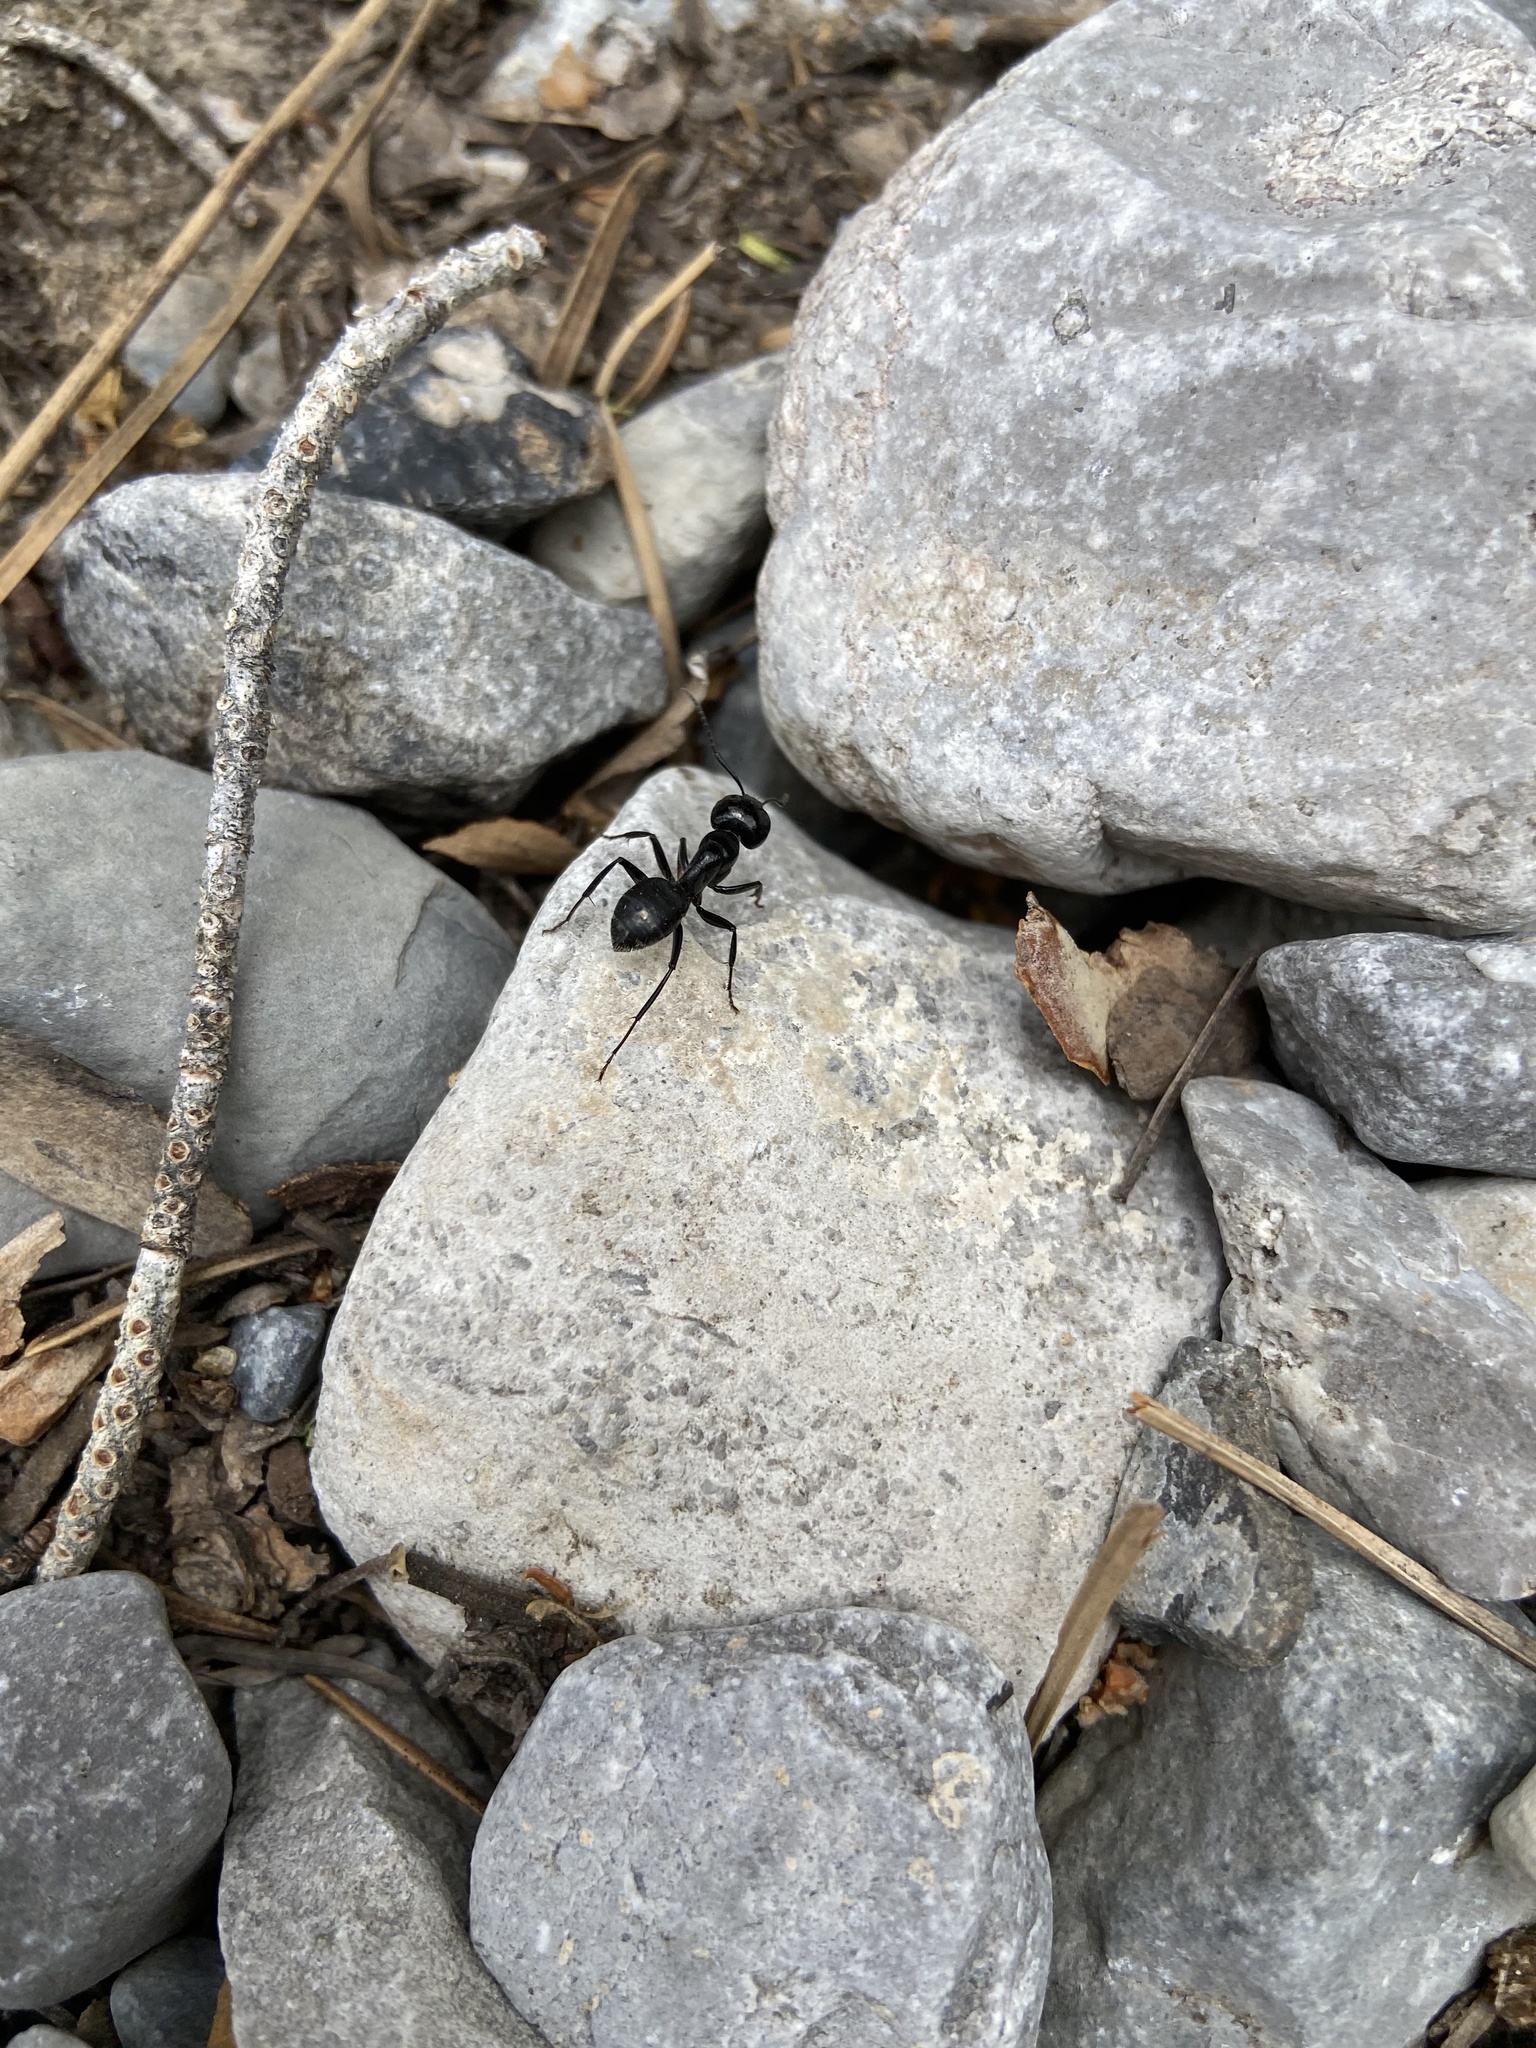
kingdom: Animalia
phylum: Arthropoda
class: Insecta
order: Hymenoptera
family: Formicidae
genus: Camponotus
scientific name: Camponotus
